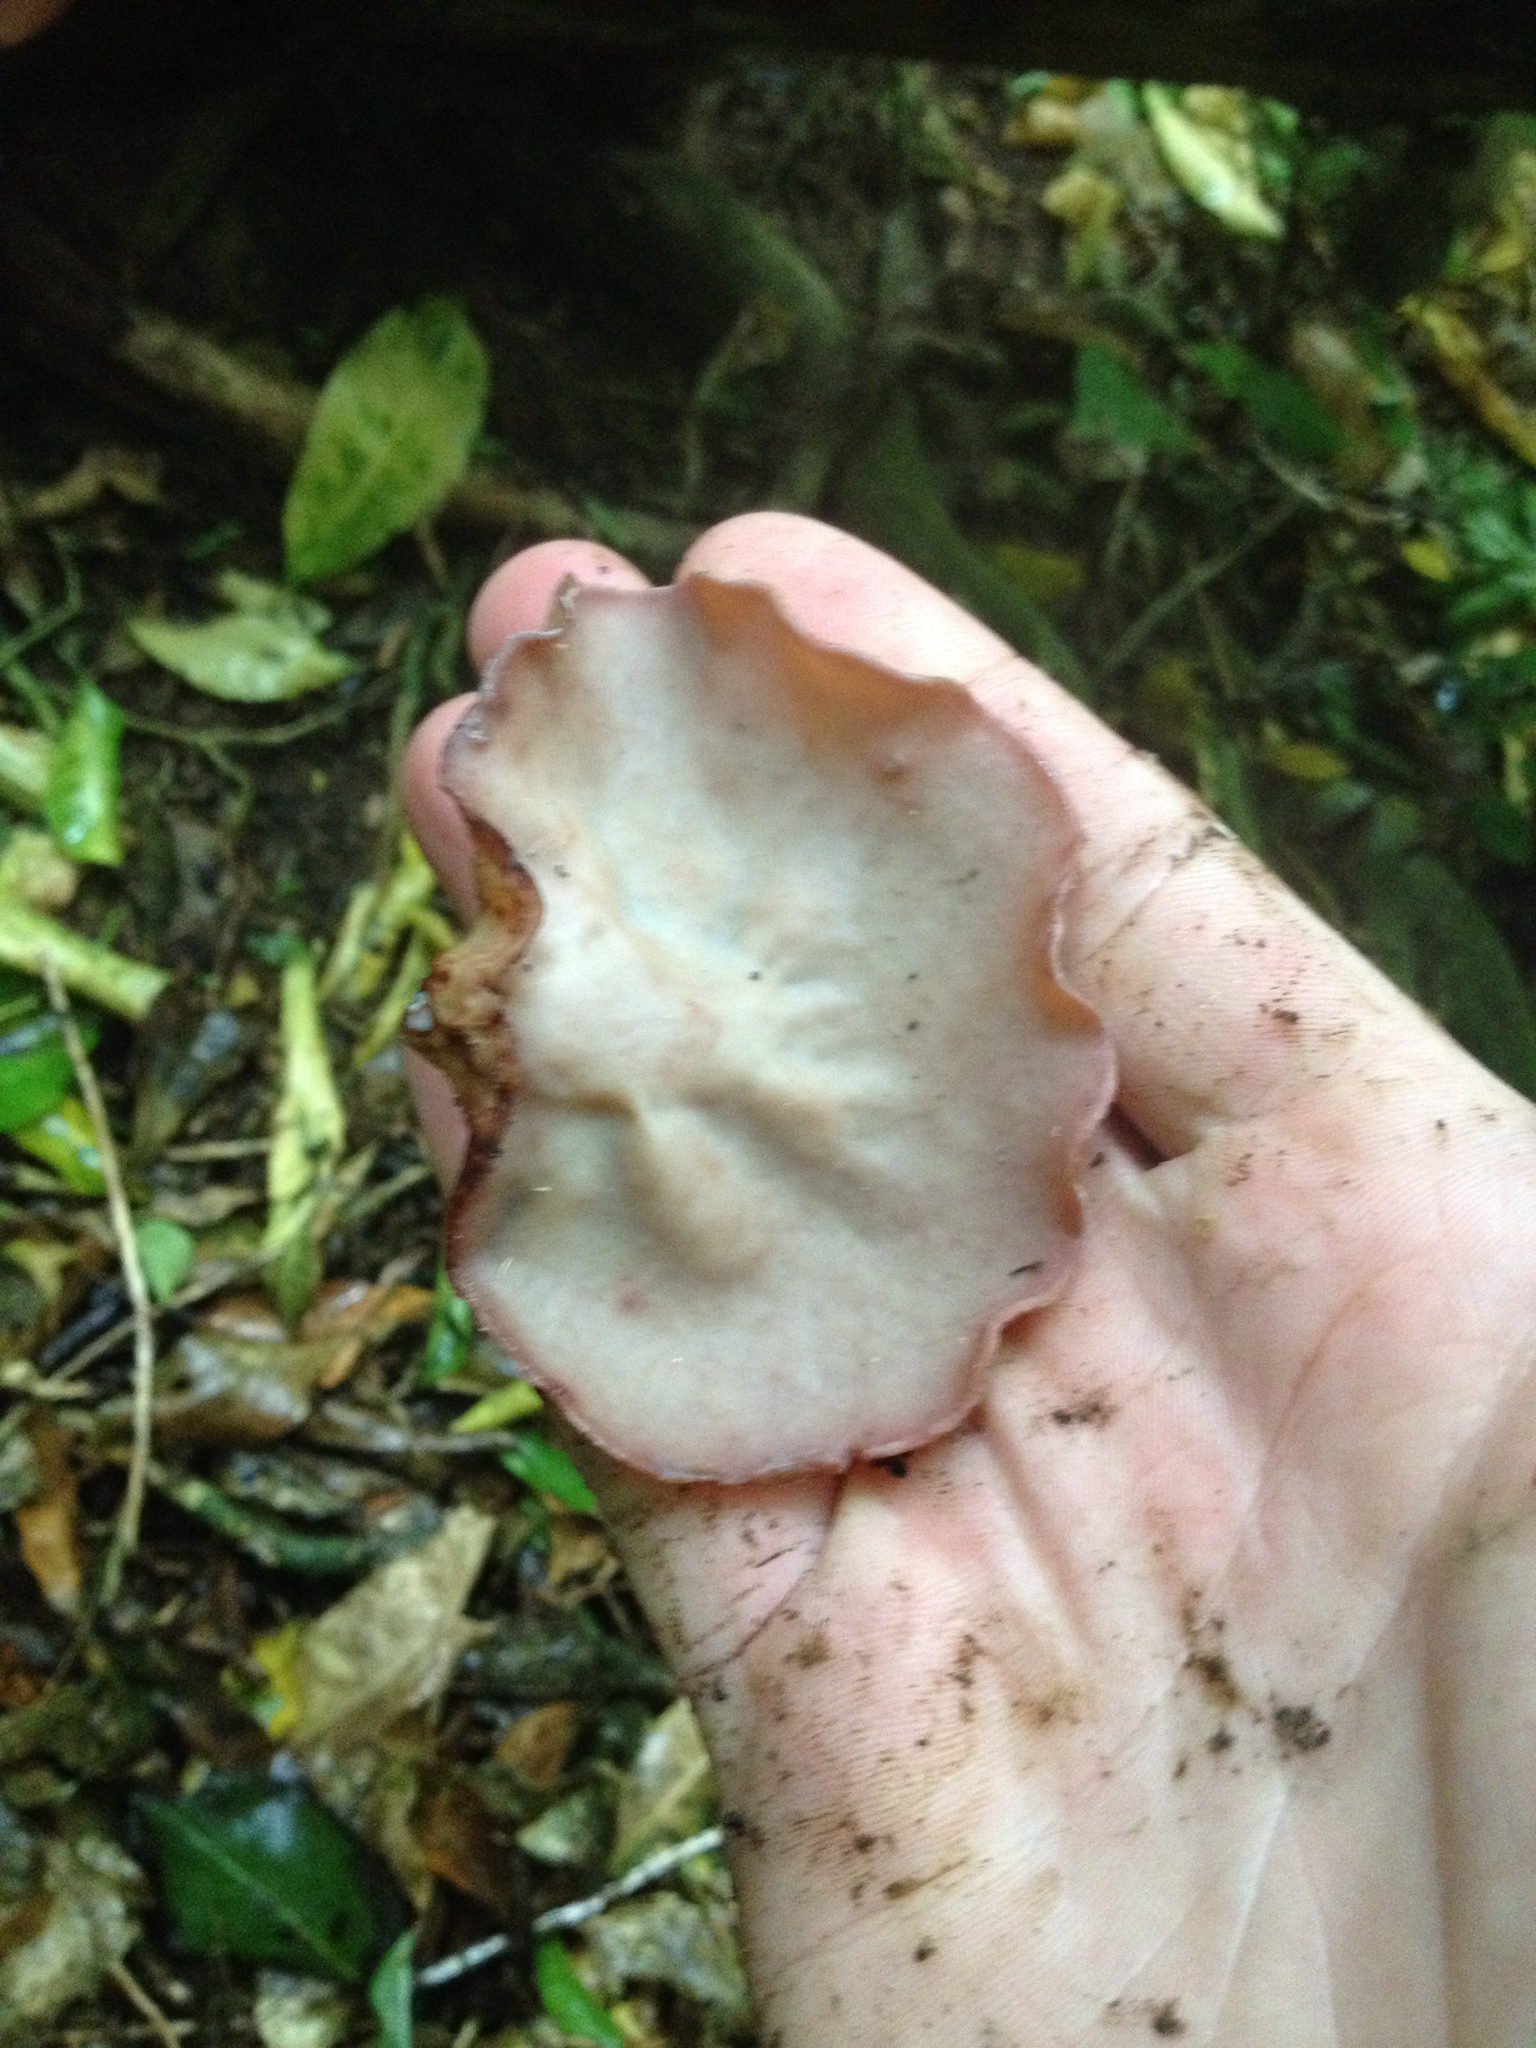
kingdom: Fungi
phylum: Basidiomycota
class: Agaricomycetes
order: Auriculariales
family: Auriculariaceae
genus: Auricularia
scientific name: Auricularia cornea
